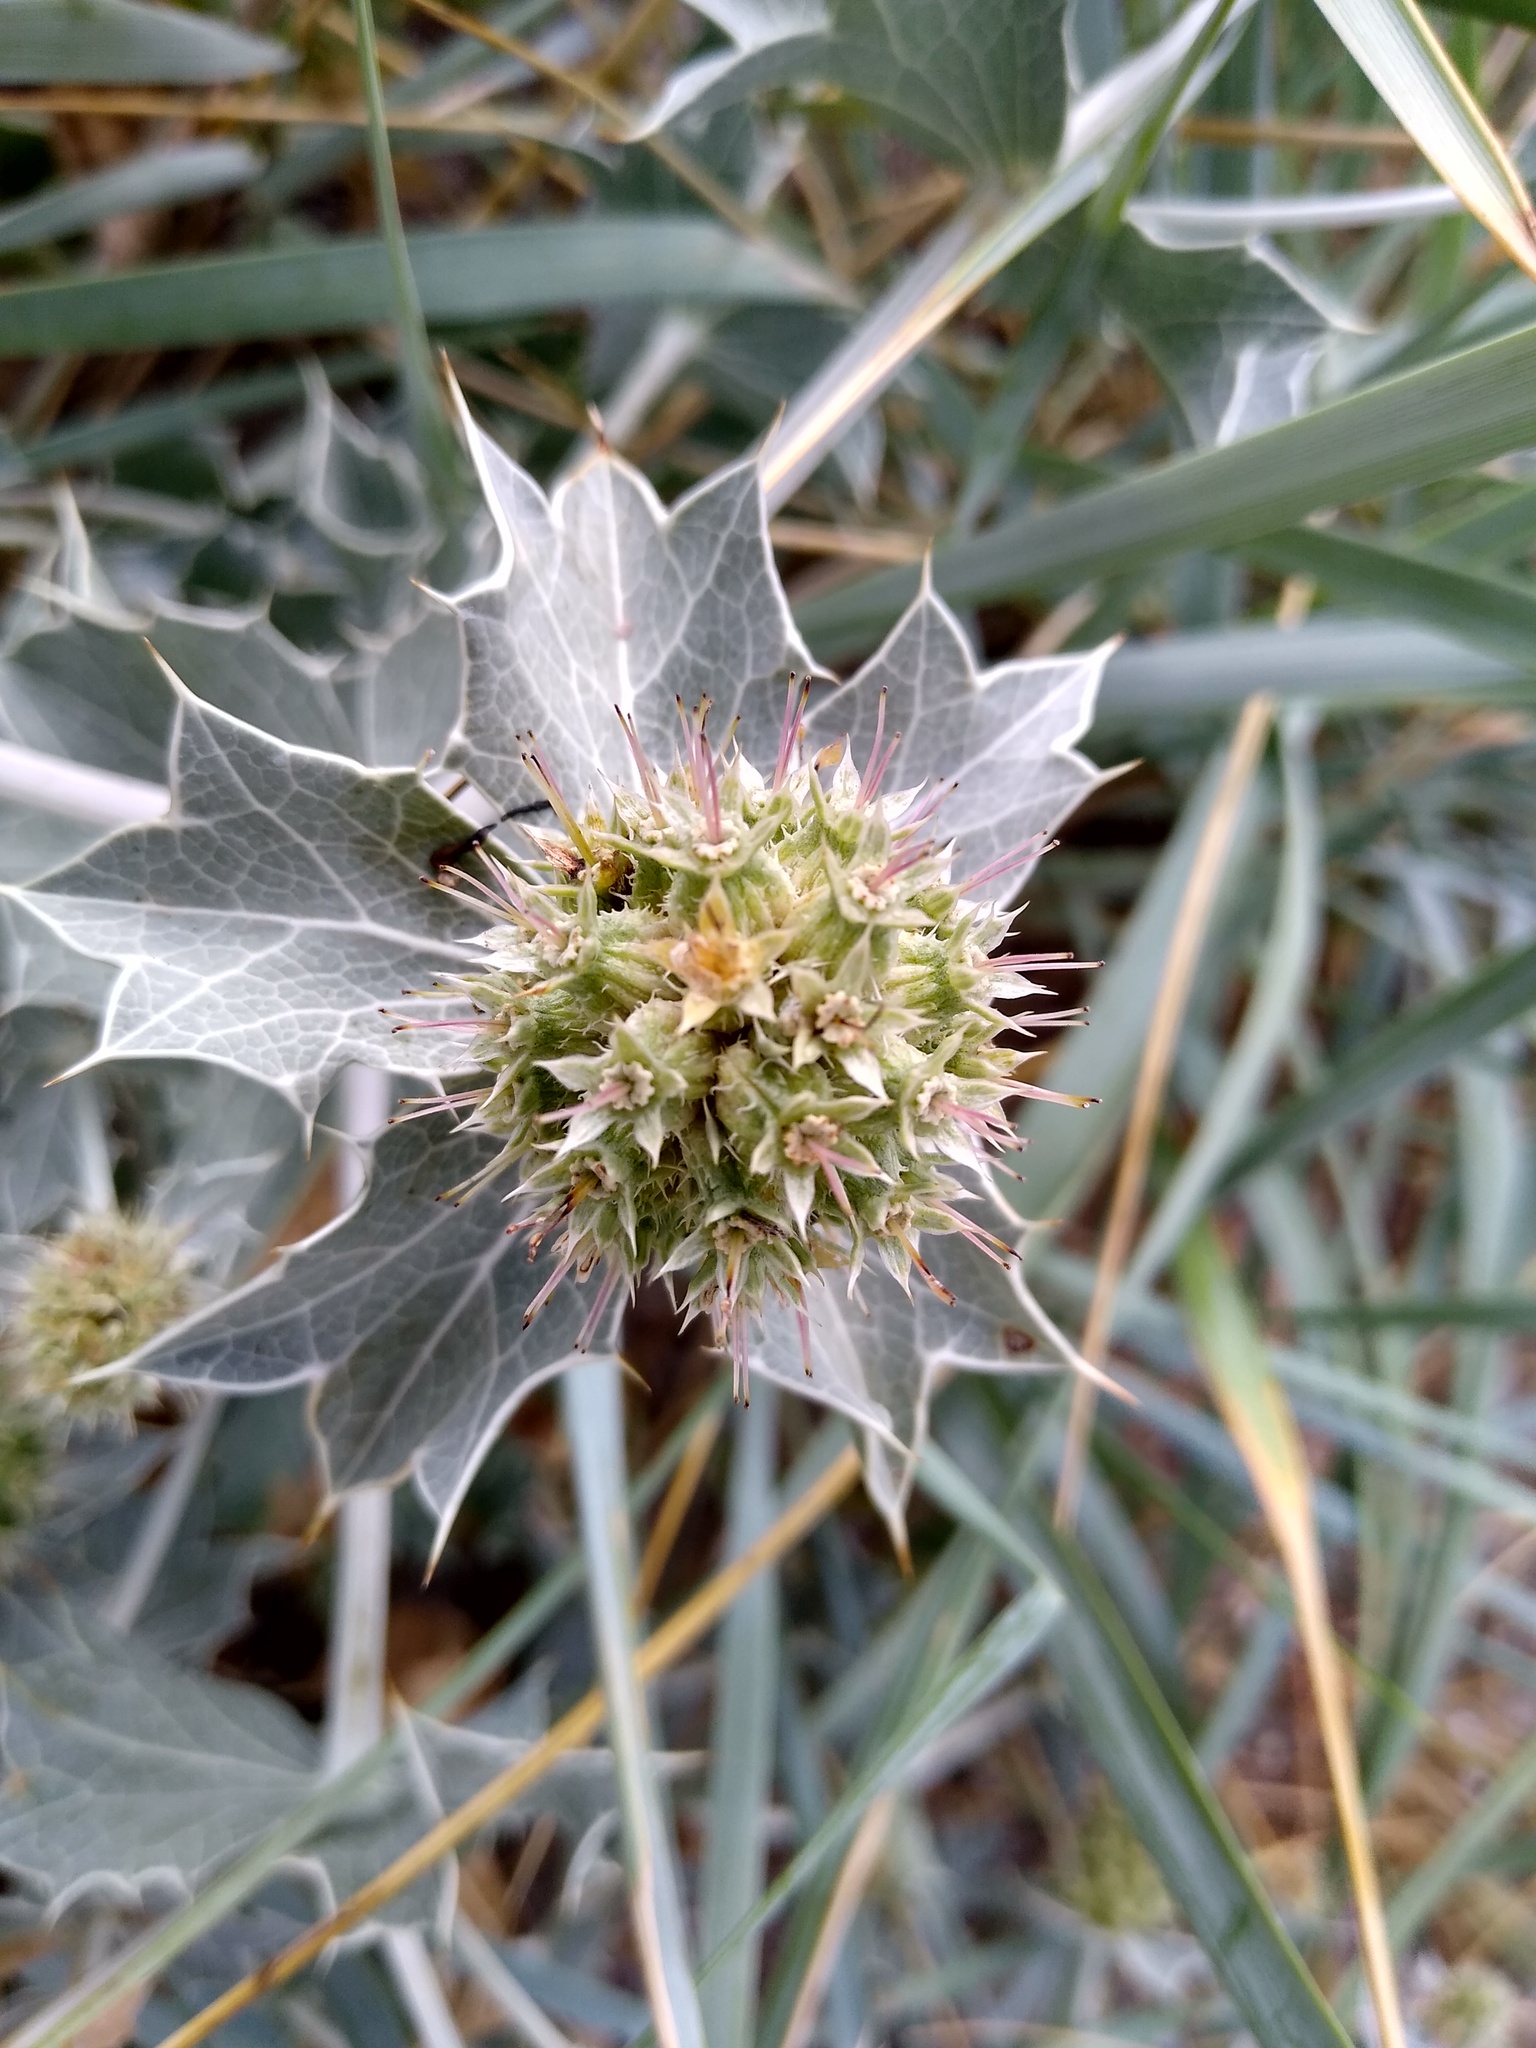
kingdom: Plantae
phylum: Tracheophyta
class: Magnoliopsida
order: Apiales
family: Apiaceae
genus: Eryngium
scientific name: Eryngium maritimum
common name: Sea-holly
